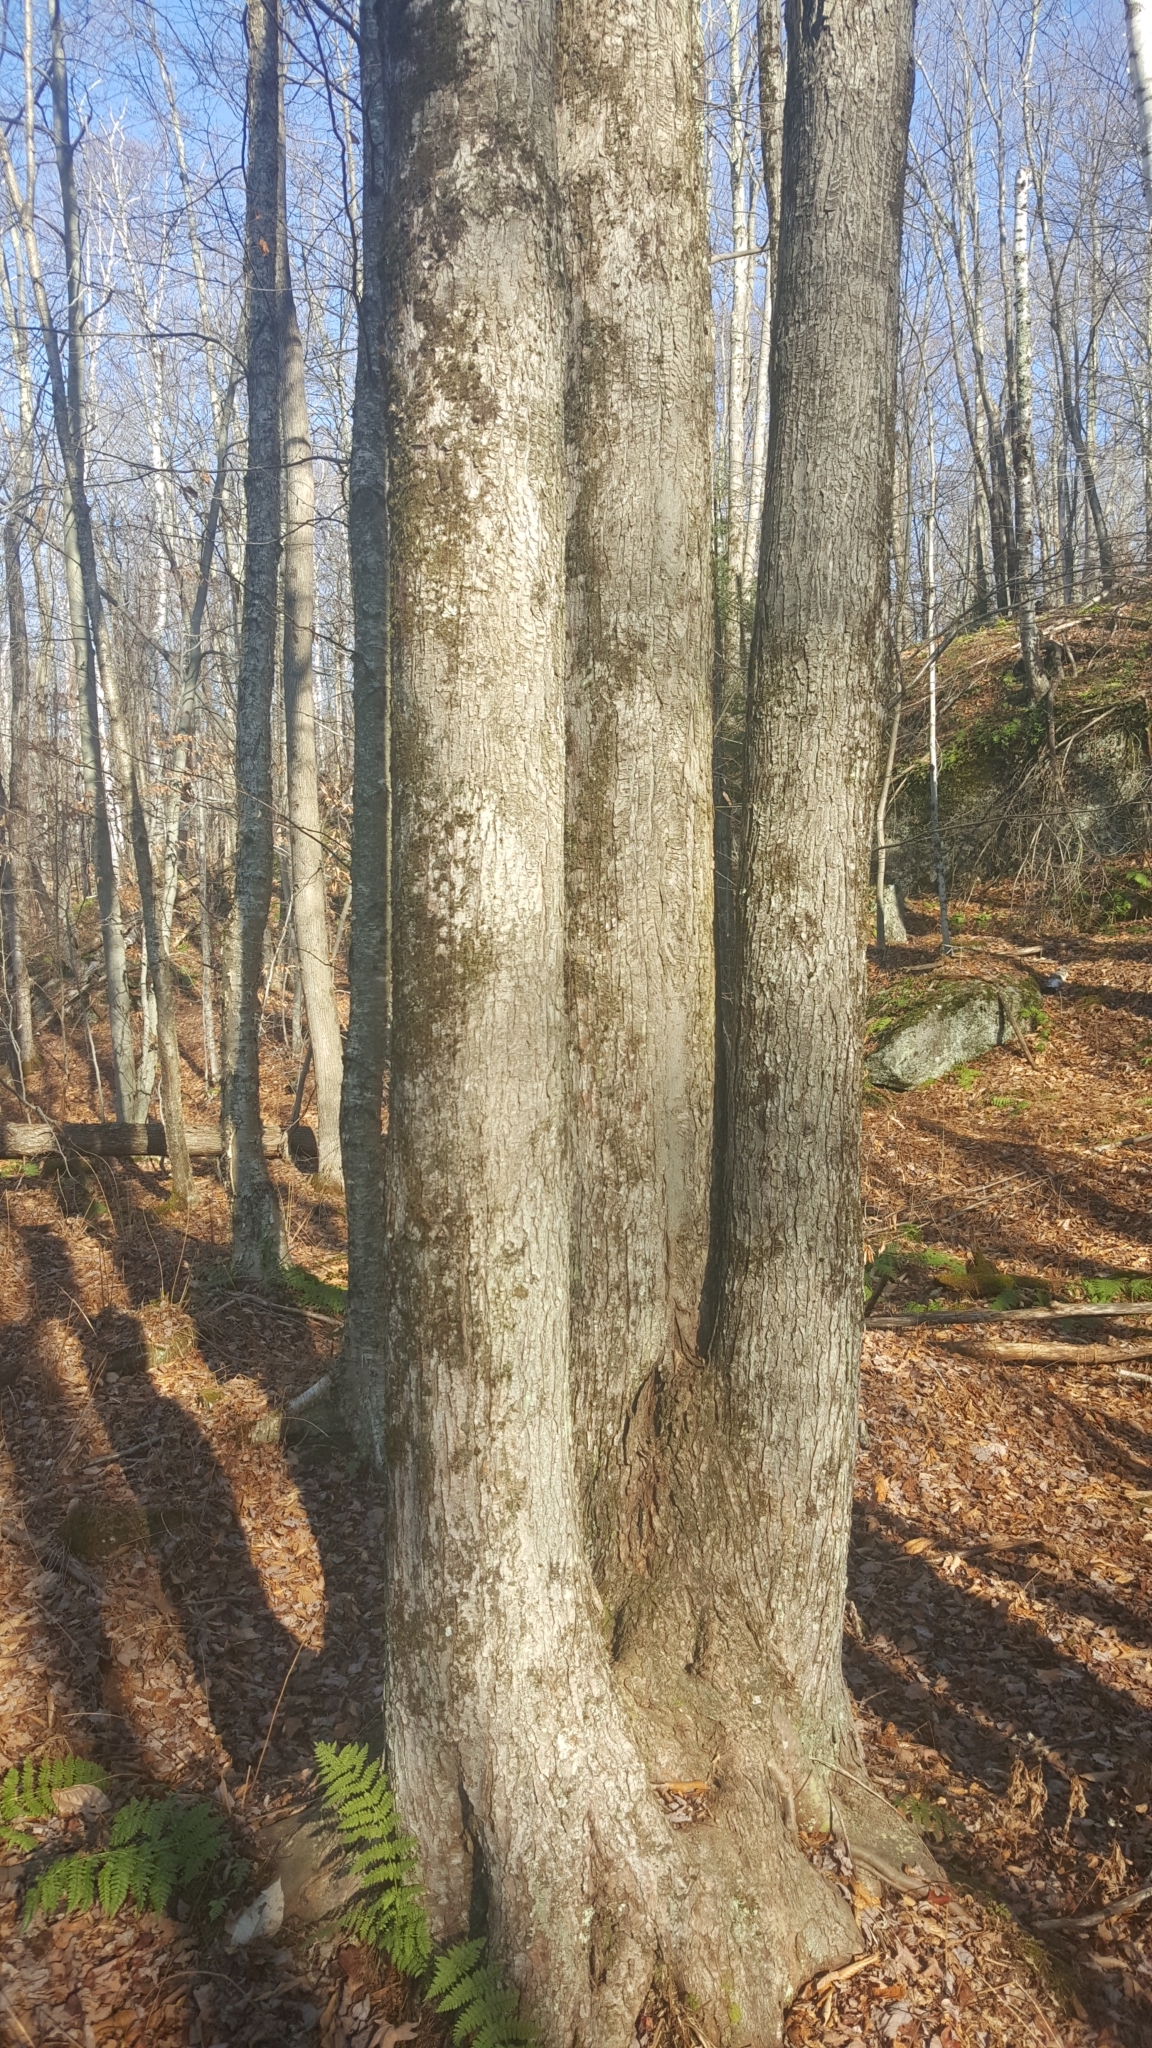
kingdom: Plantae
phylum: Tracheophyta
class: Magnoliopsida
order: Sapindales
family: Sapindaceae
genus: Acer
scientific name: Acer rubrum
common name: Red maple
